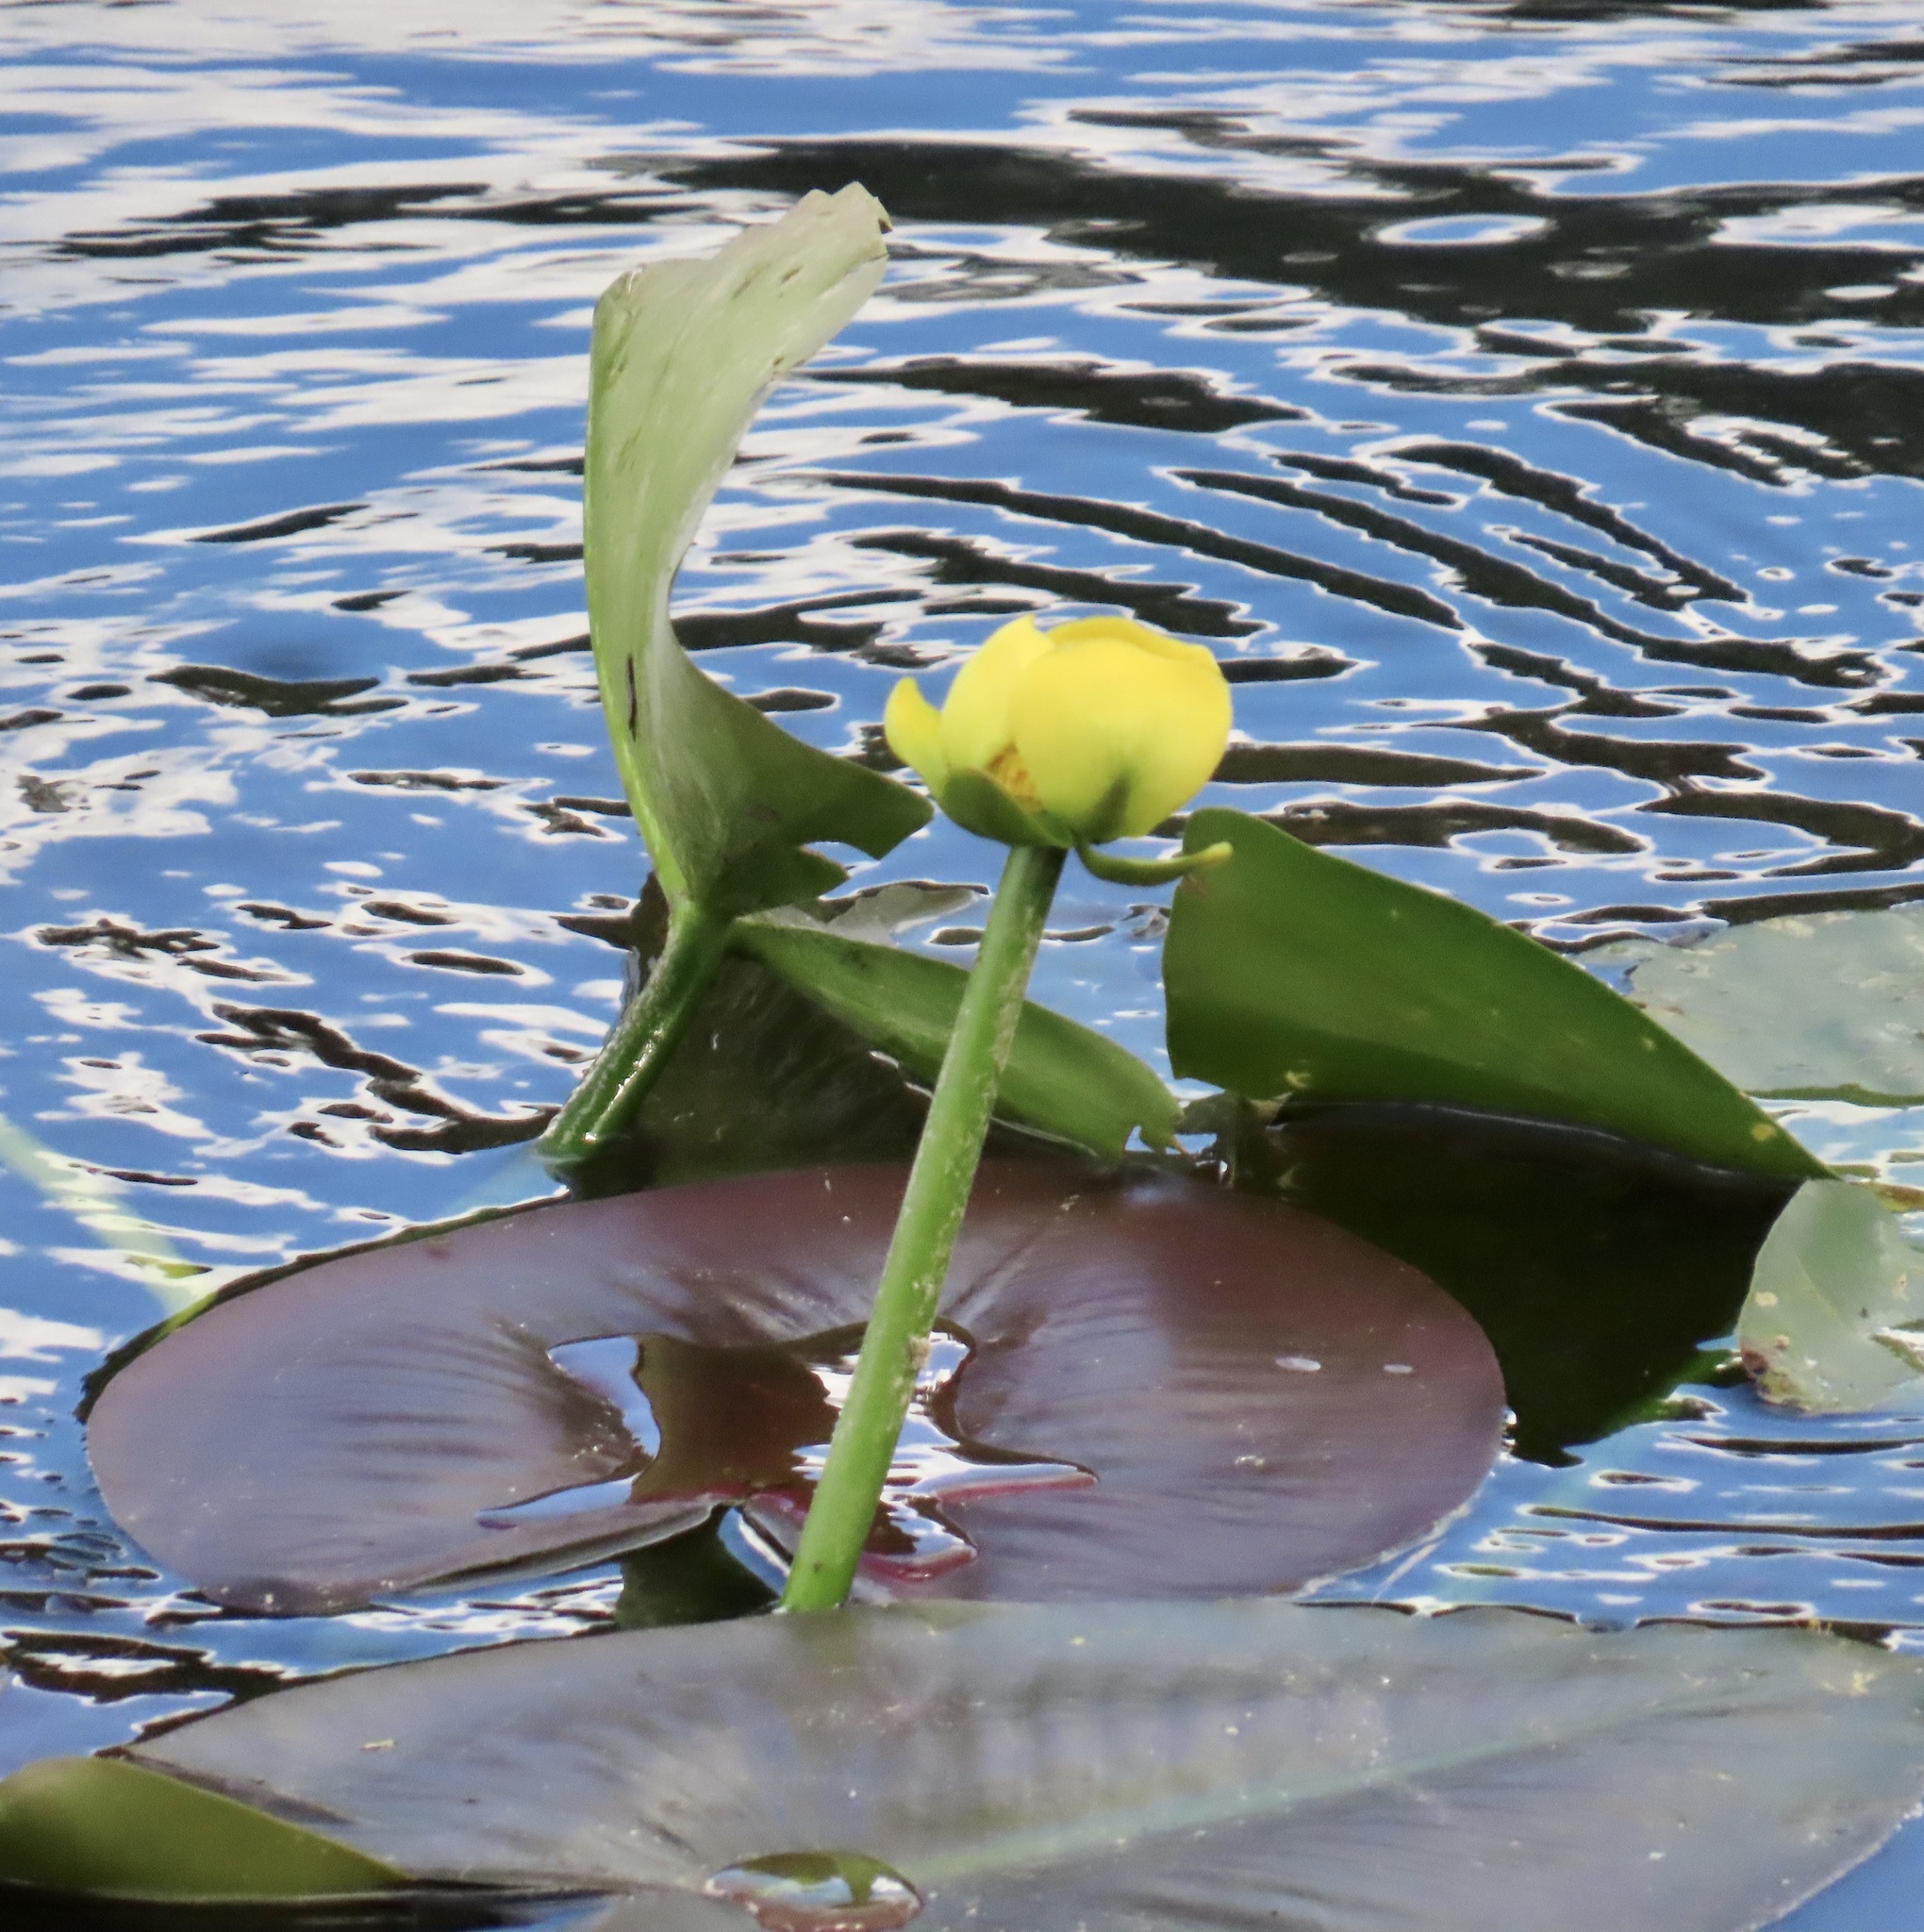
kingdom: Plantae
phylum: Tracheophyta
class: Magnoliopsida
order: Nymphaeales
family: Nymphaeaceae
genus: Nuphar
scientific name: Nuphar lutea
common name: Yellow water-lily
